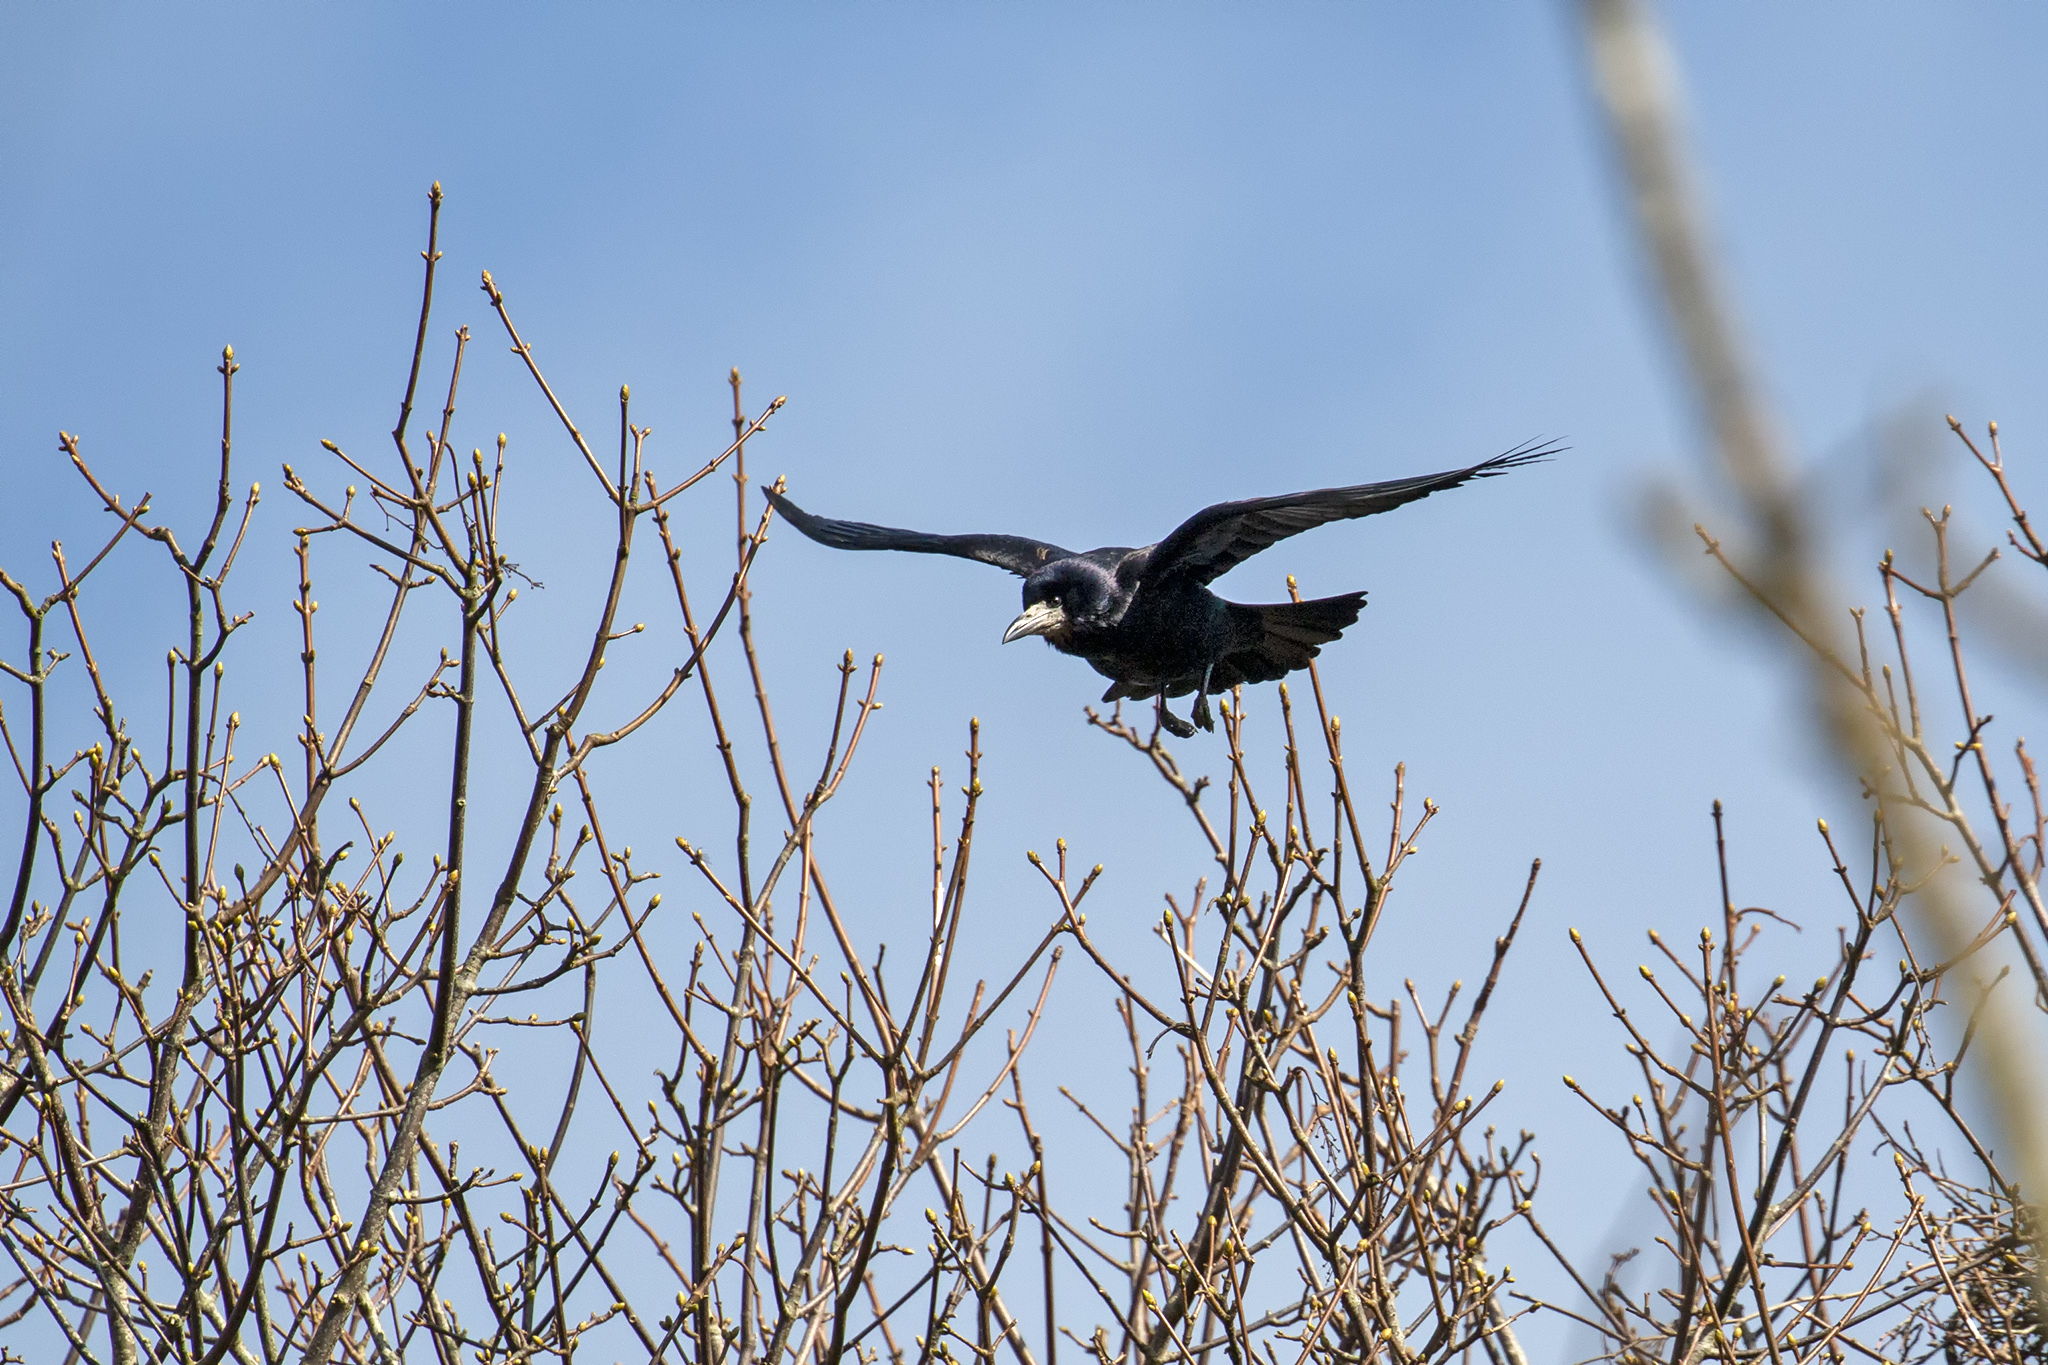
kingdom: Animalia
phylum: Chordata
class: Aves
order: Passeriformes
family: Corvidae
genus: Corvus
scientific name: Corvus frugilegus
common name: Rook
